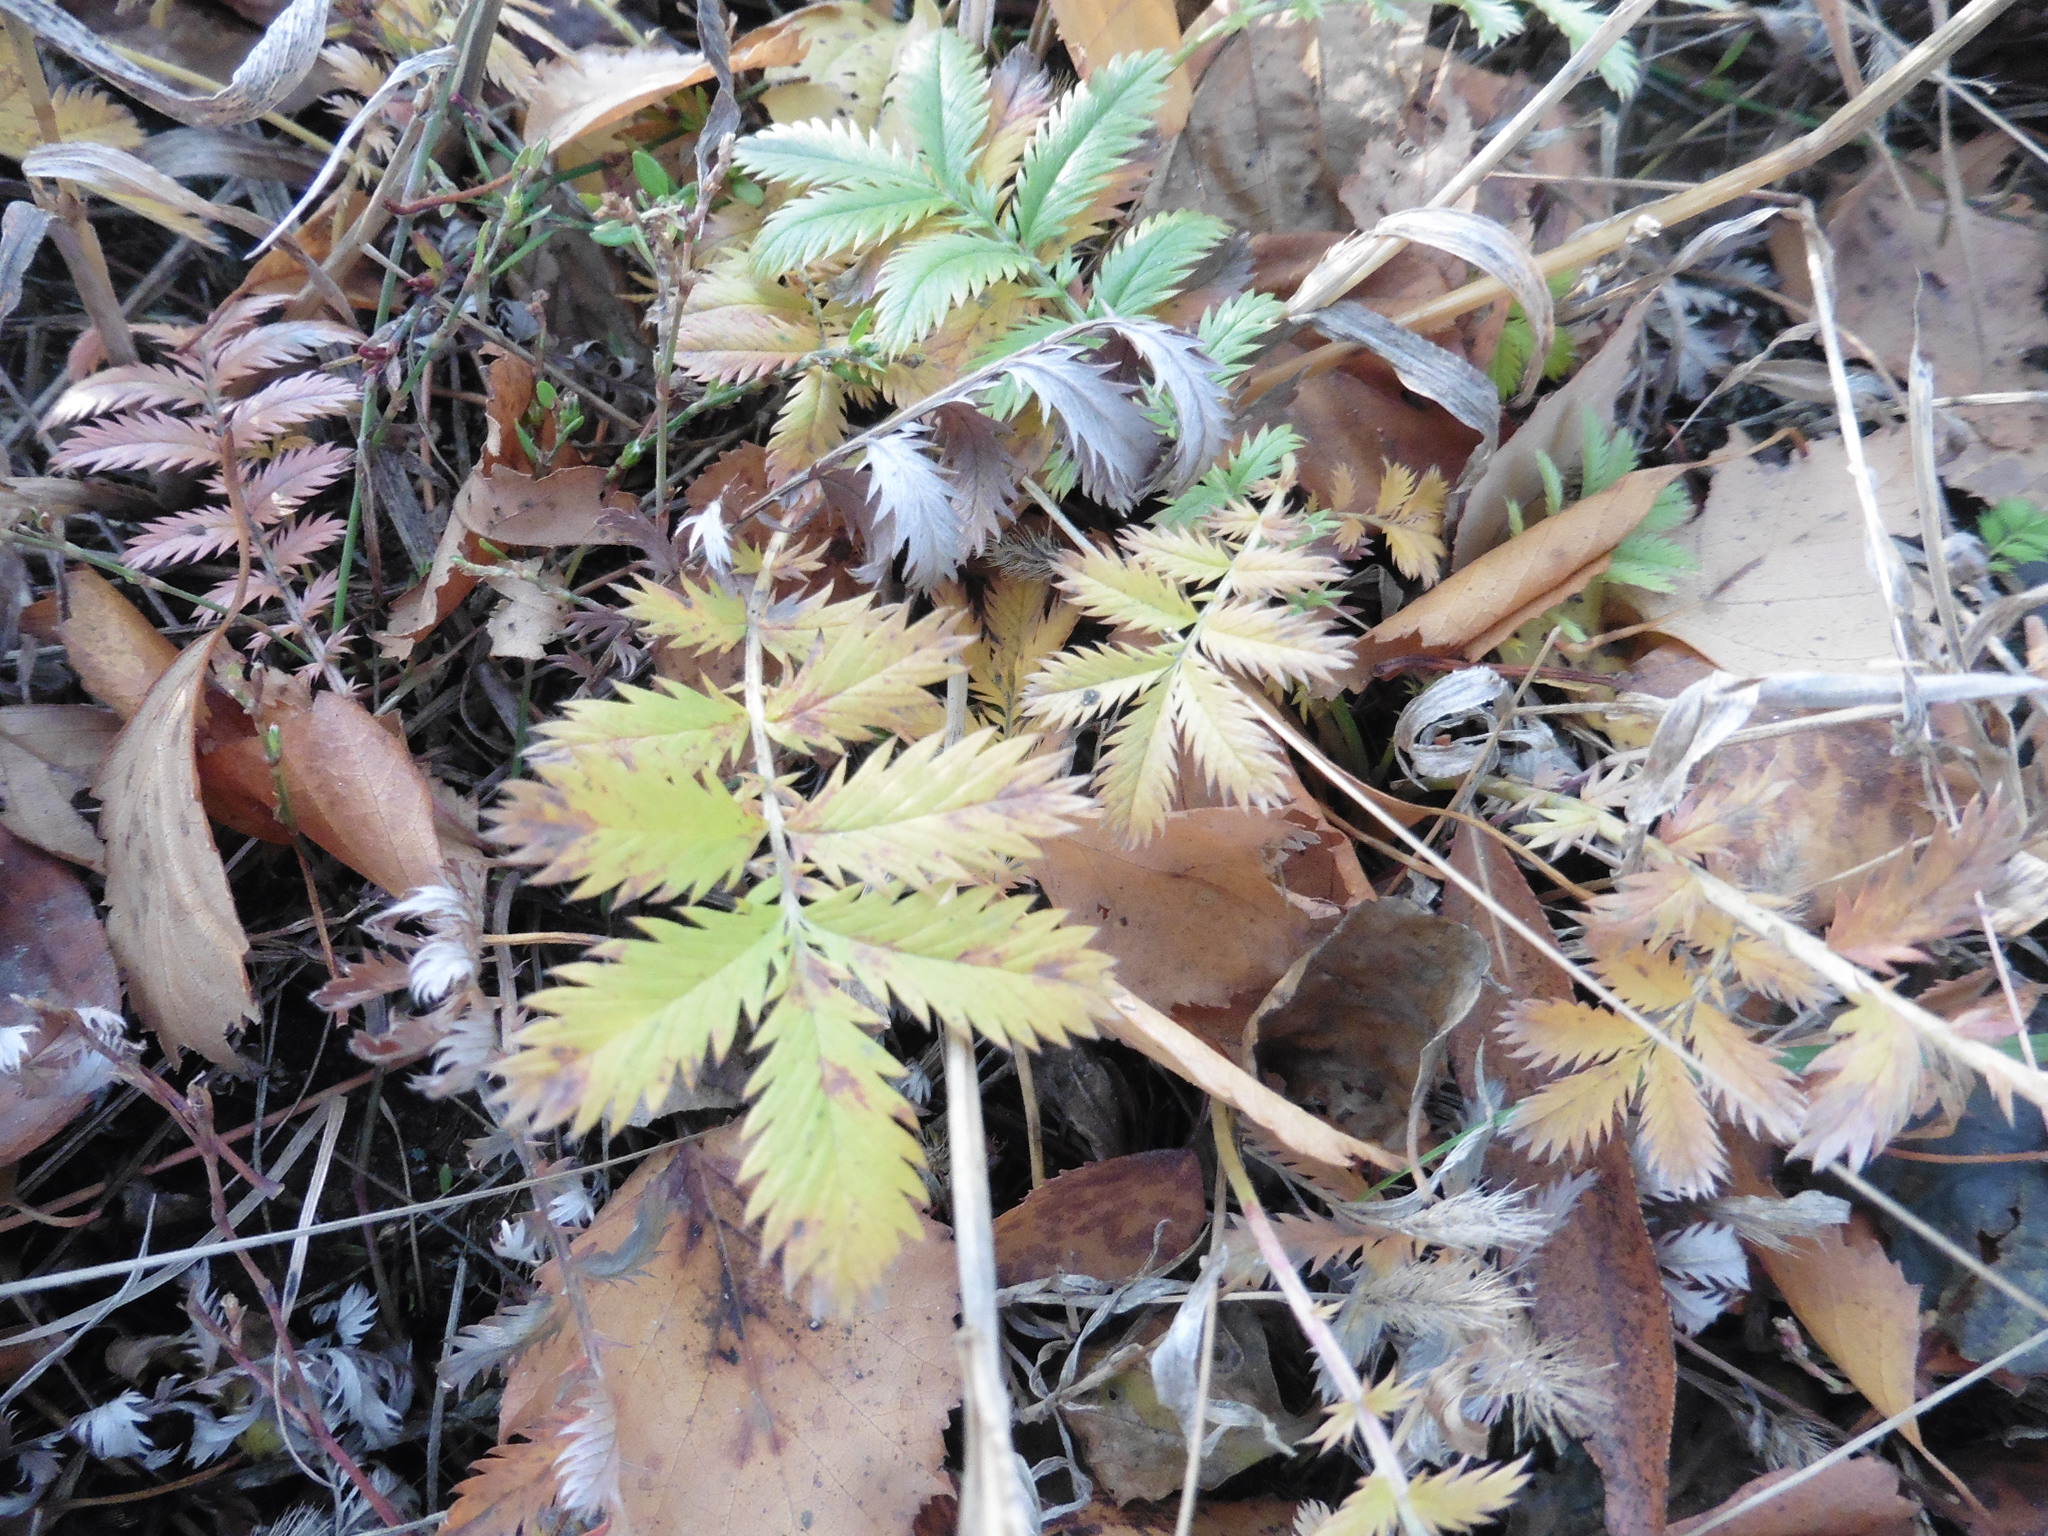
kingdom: Plantae
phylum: Tracheophyta
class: Magnoliopsida
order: Rosales
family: Rosaceae
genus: Argentina
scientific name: Argentina anserina
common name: Common silverweed
